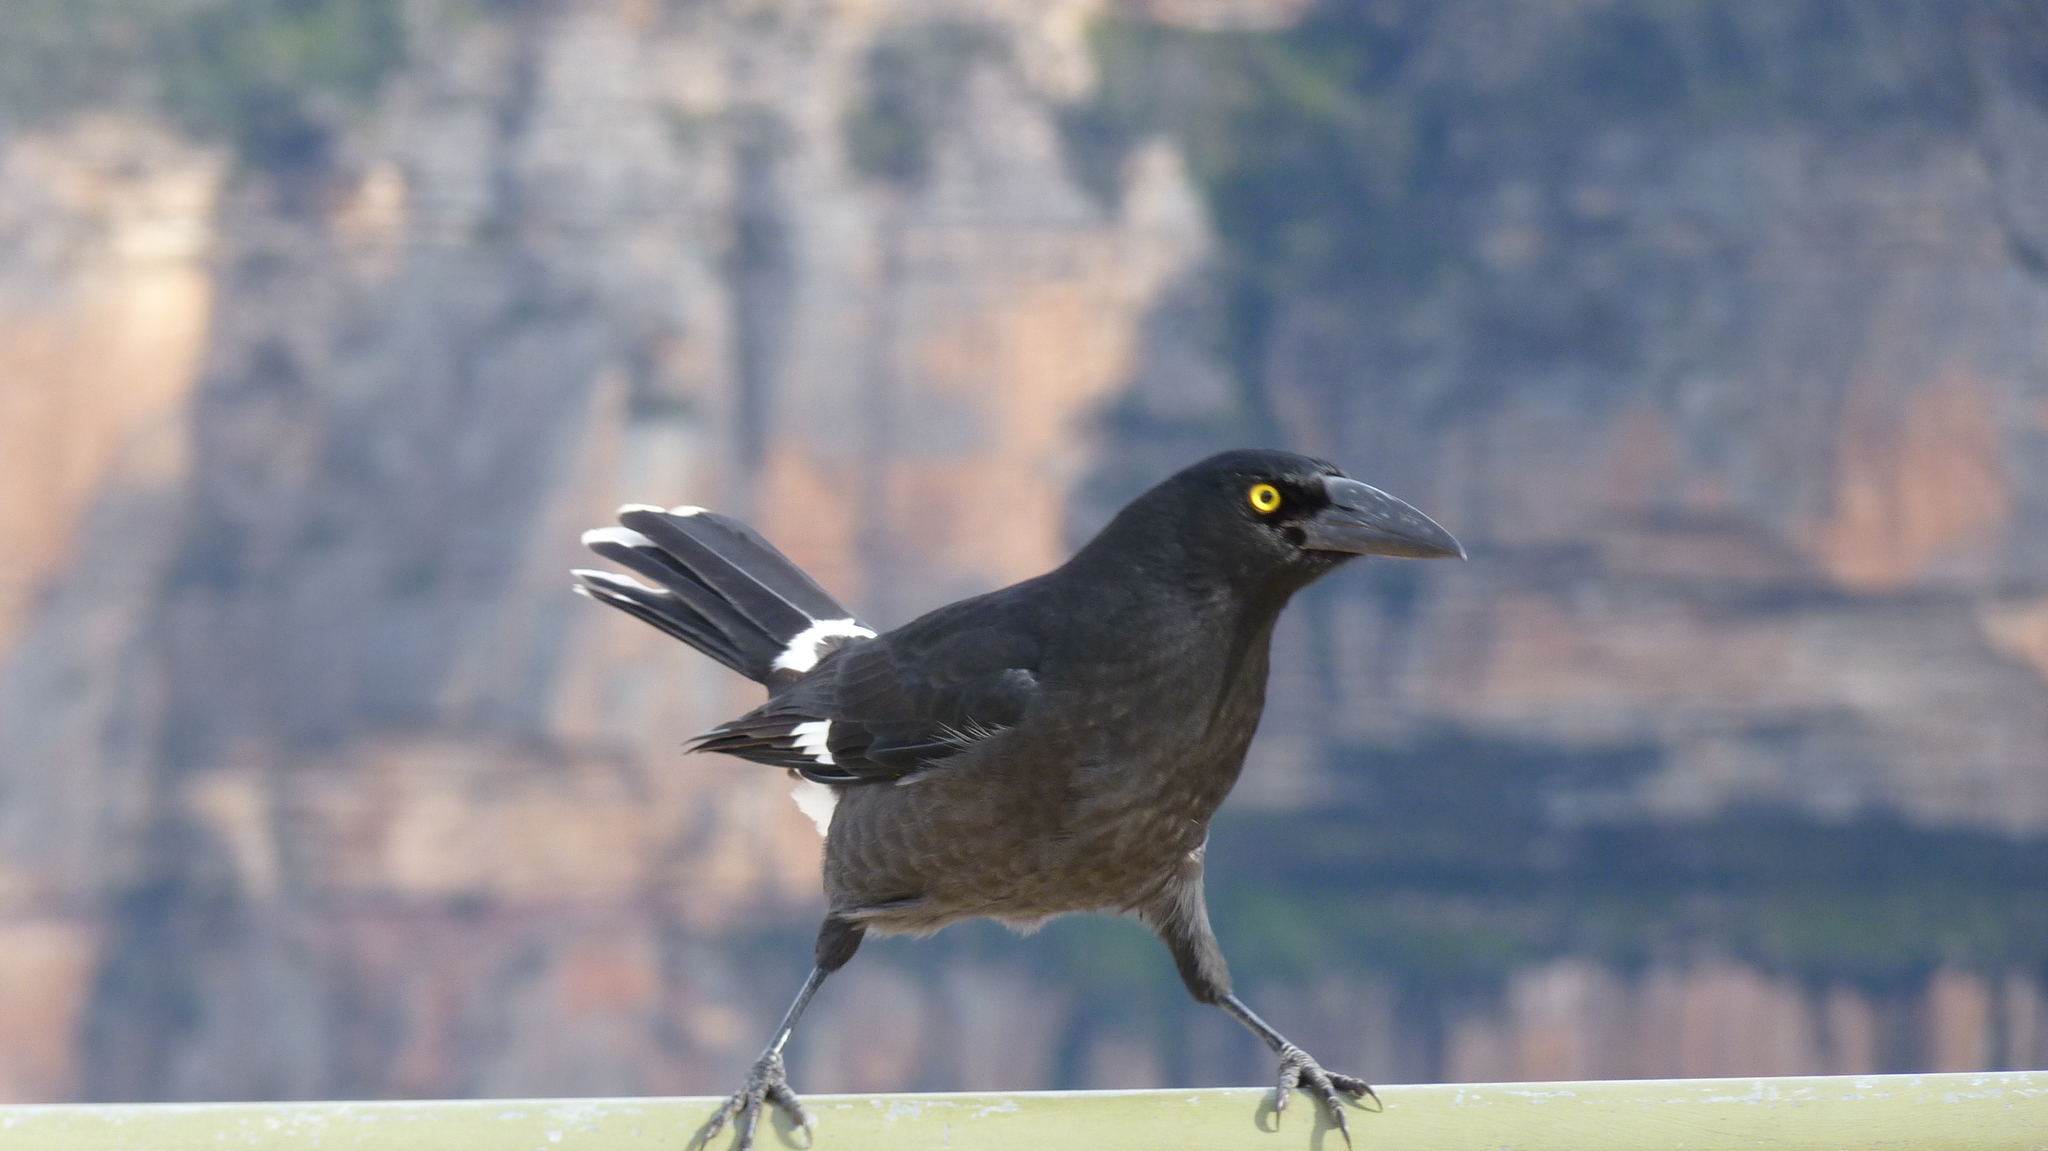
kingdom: Animalia
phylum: Chordata
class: Aves
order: Passeriformes
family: Cracticidae
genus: Strepera
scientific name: Strepera graculina
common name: Pied currawong
